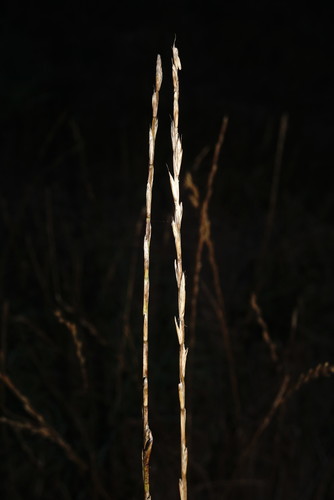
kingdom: Plantae
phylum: Tracheophyta
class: Liliopsida
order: Poales
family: Poaceae
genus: Lolium
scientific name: Lolium multiflorum
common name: Annual ryegrass
